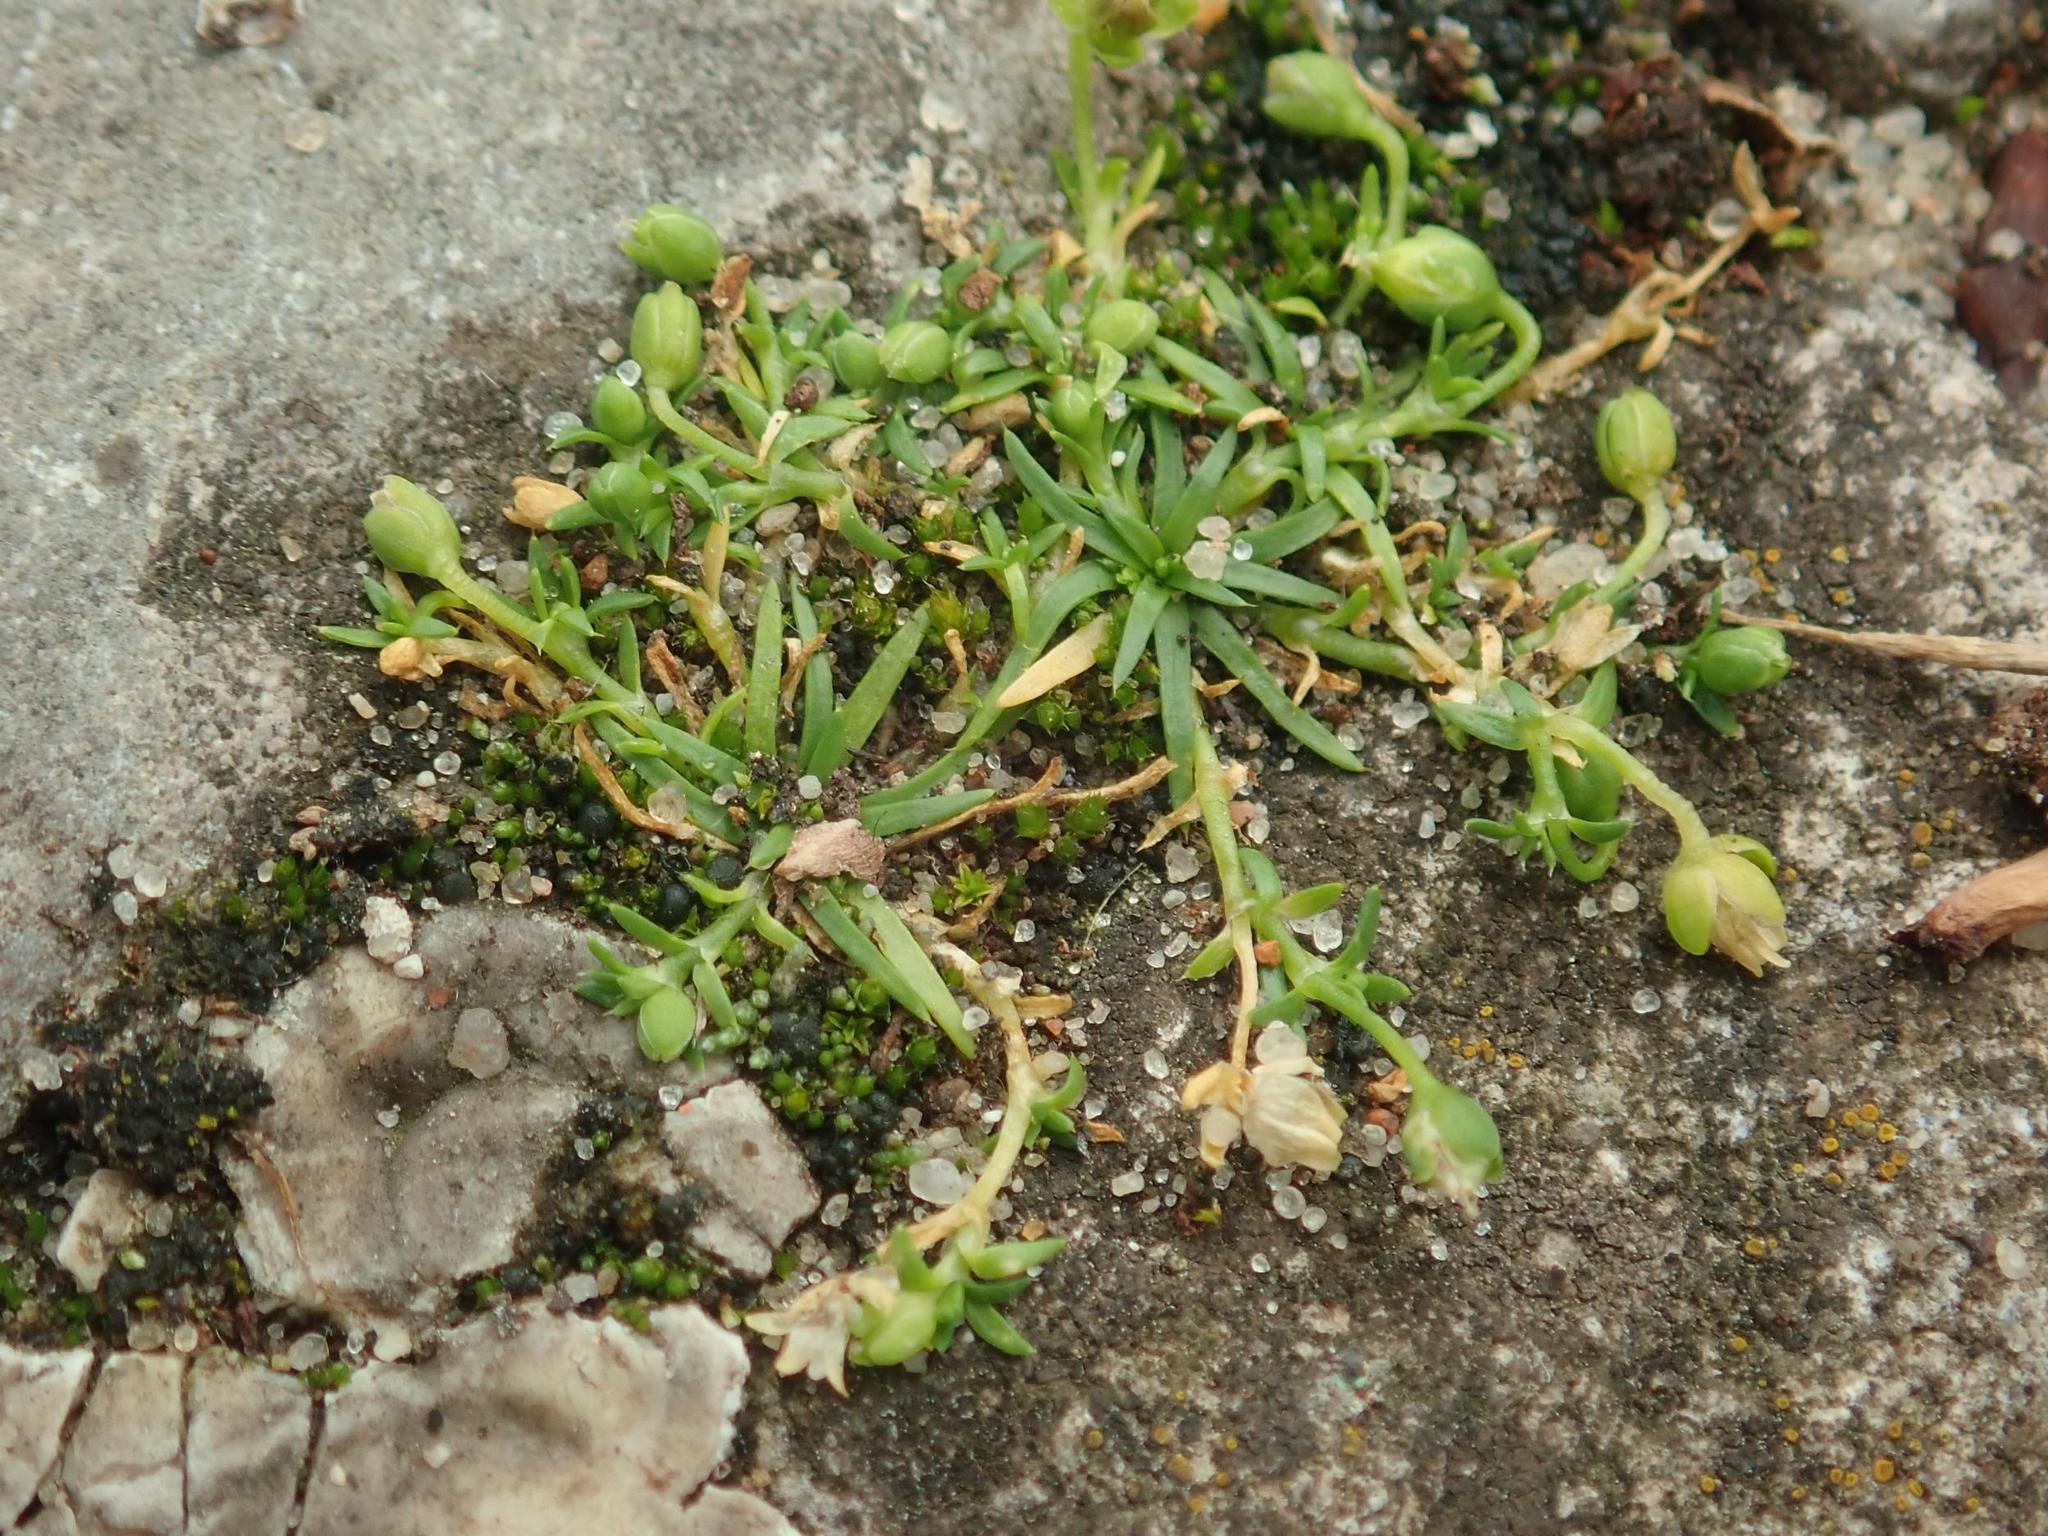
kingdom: Plantae
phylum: Tracheophyta
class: Magnoliopsida
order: Caryophyllales
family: Caryophyllaceae
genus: Sagina
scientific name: Sagina procumbens
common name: Procumbent pearlwort
